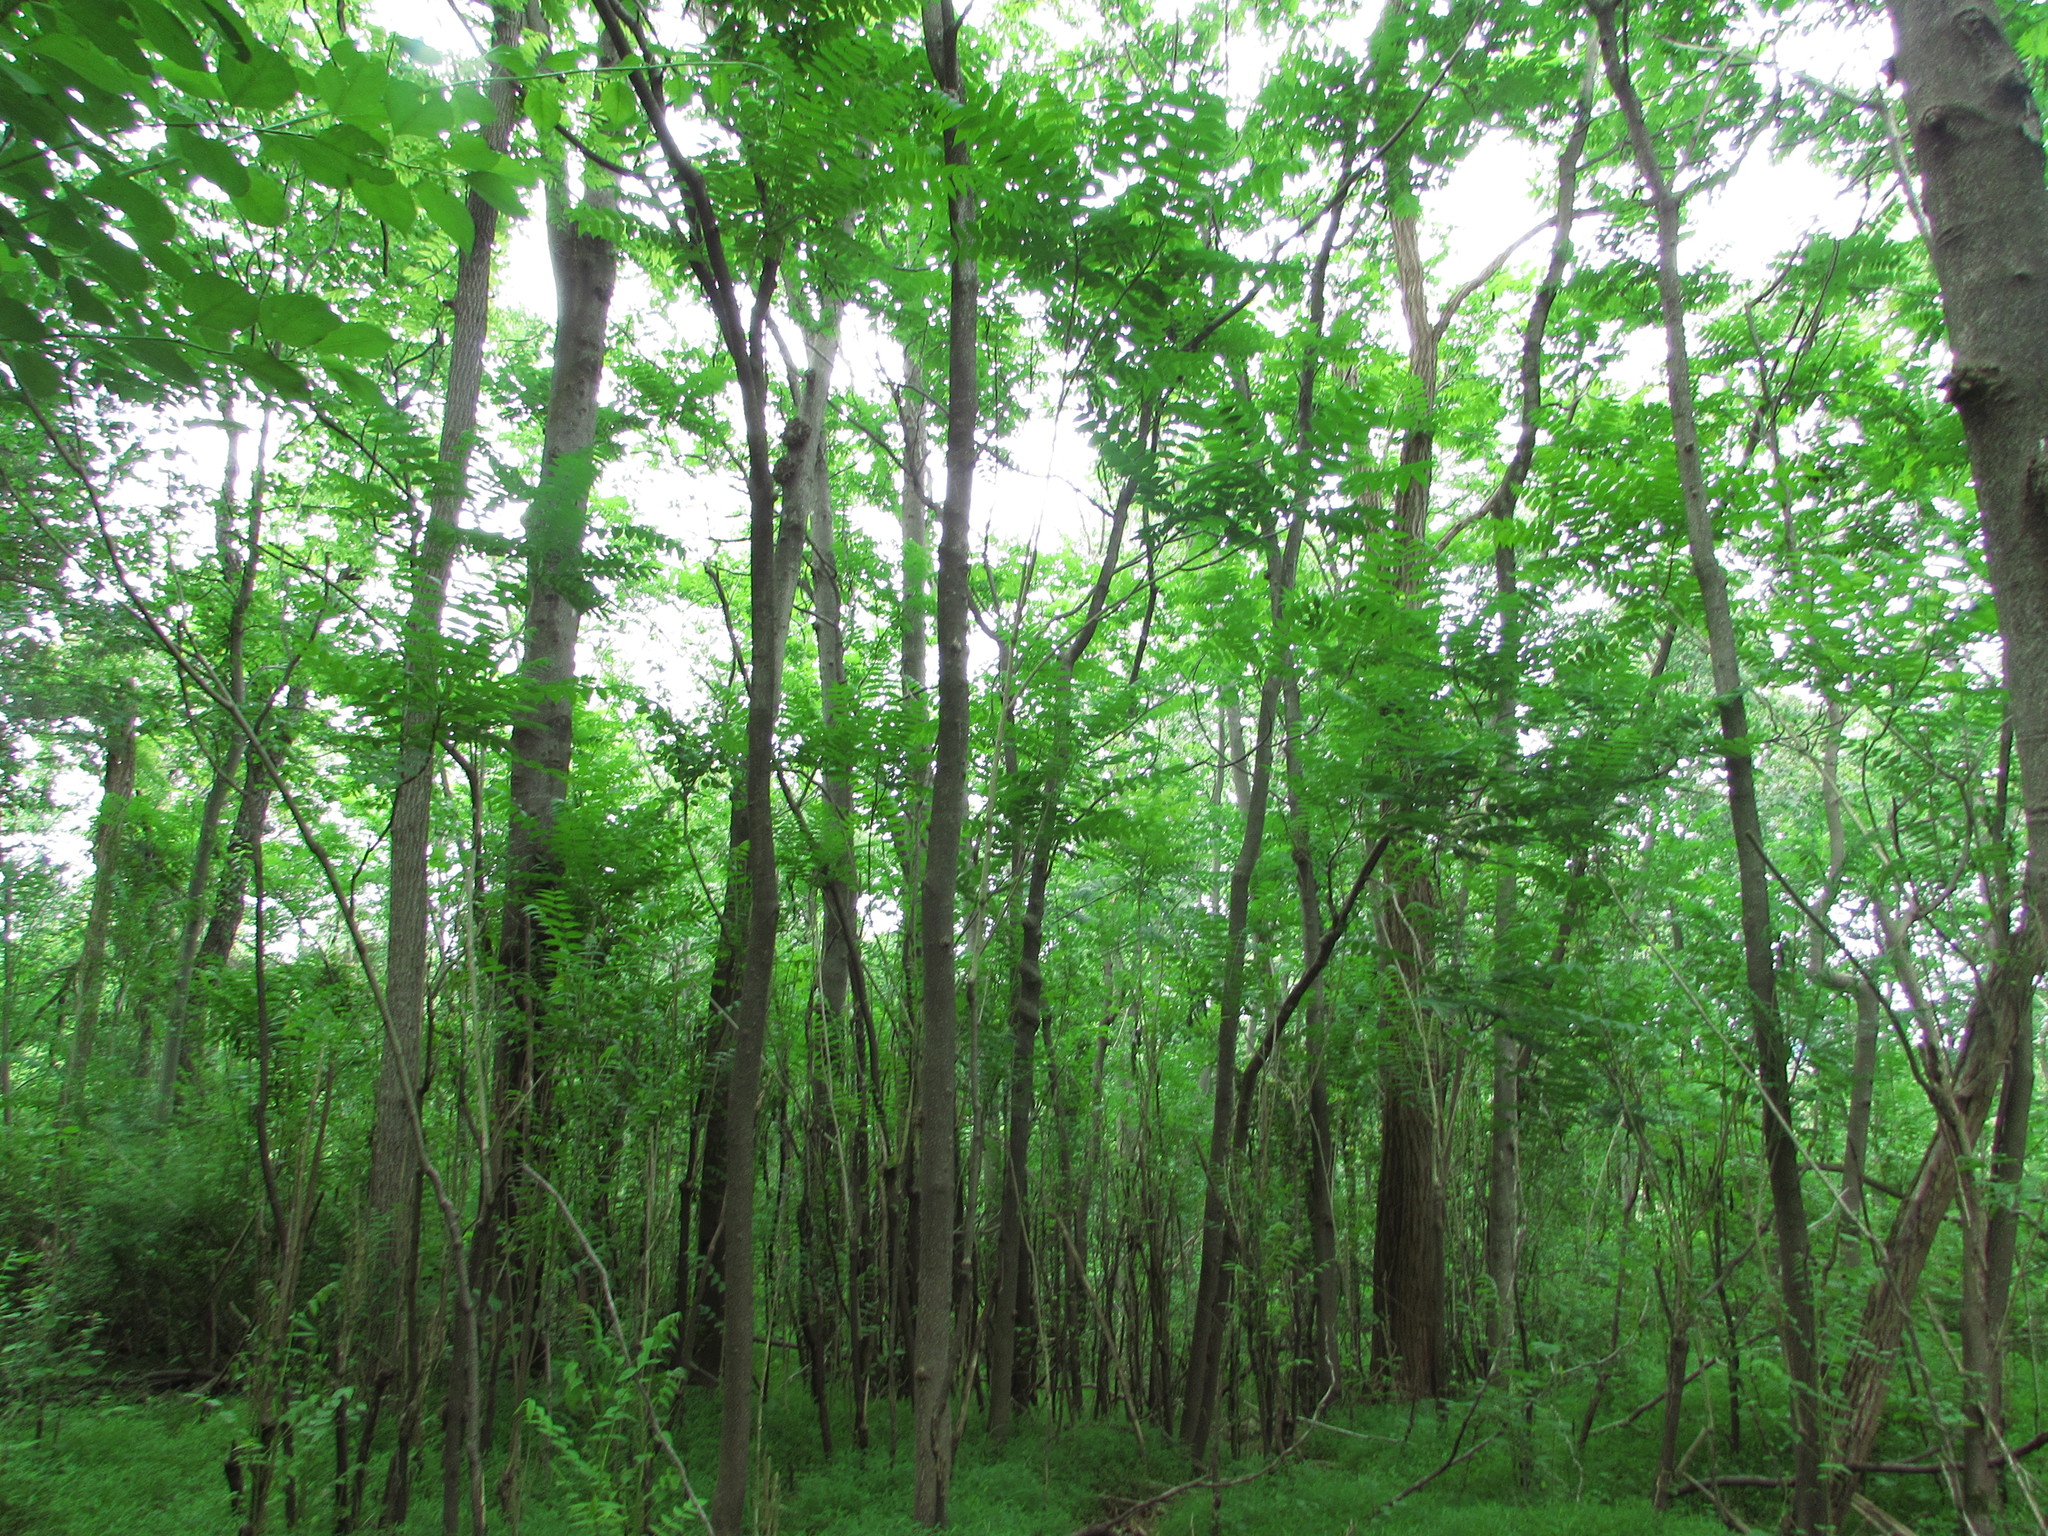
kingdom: Plantae
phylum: Tracheophyta
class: Magnoliopsida
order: Sapindales
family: Simaroubaceae
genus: Ailanthus
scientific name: Ailanthus altissima
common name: Tree-of-heaven
